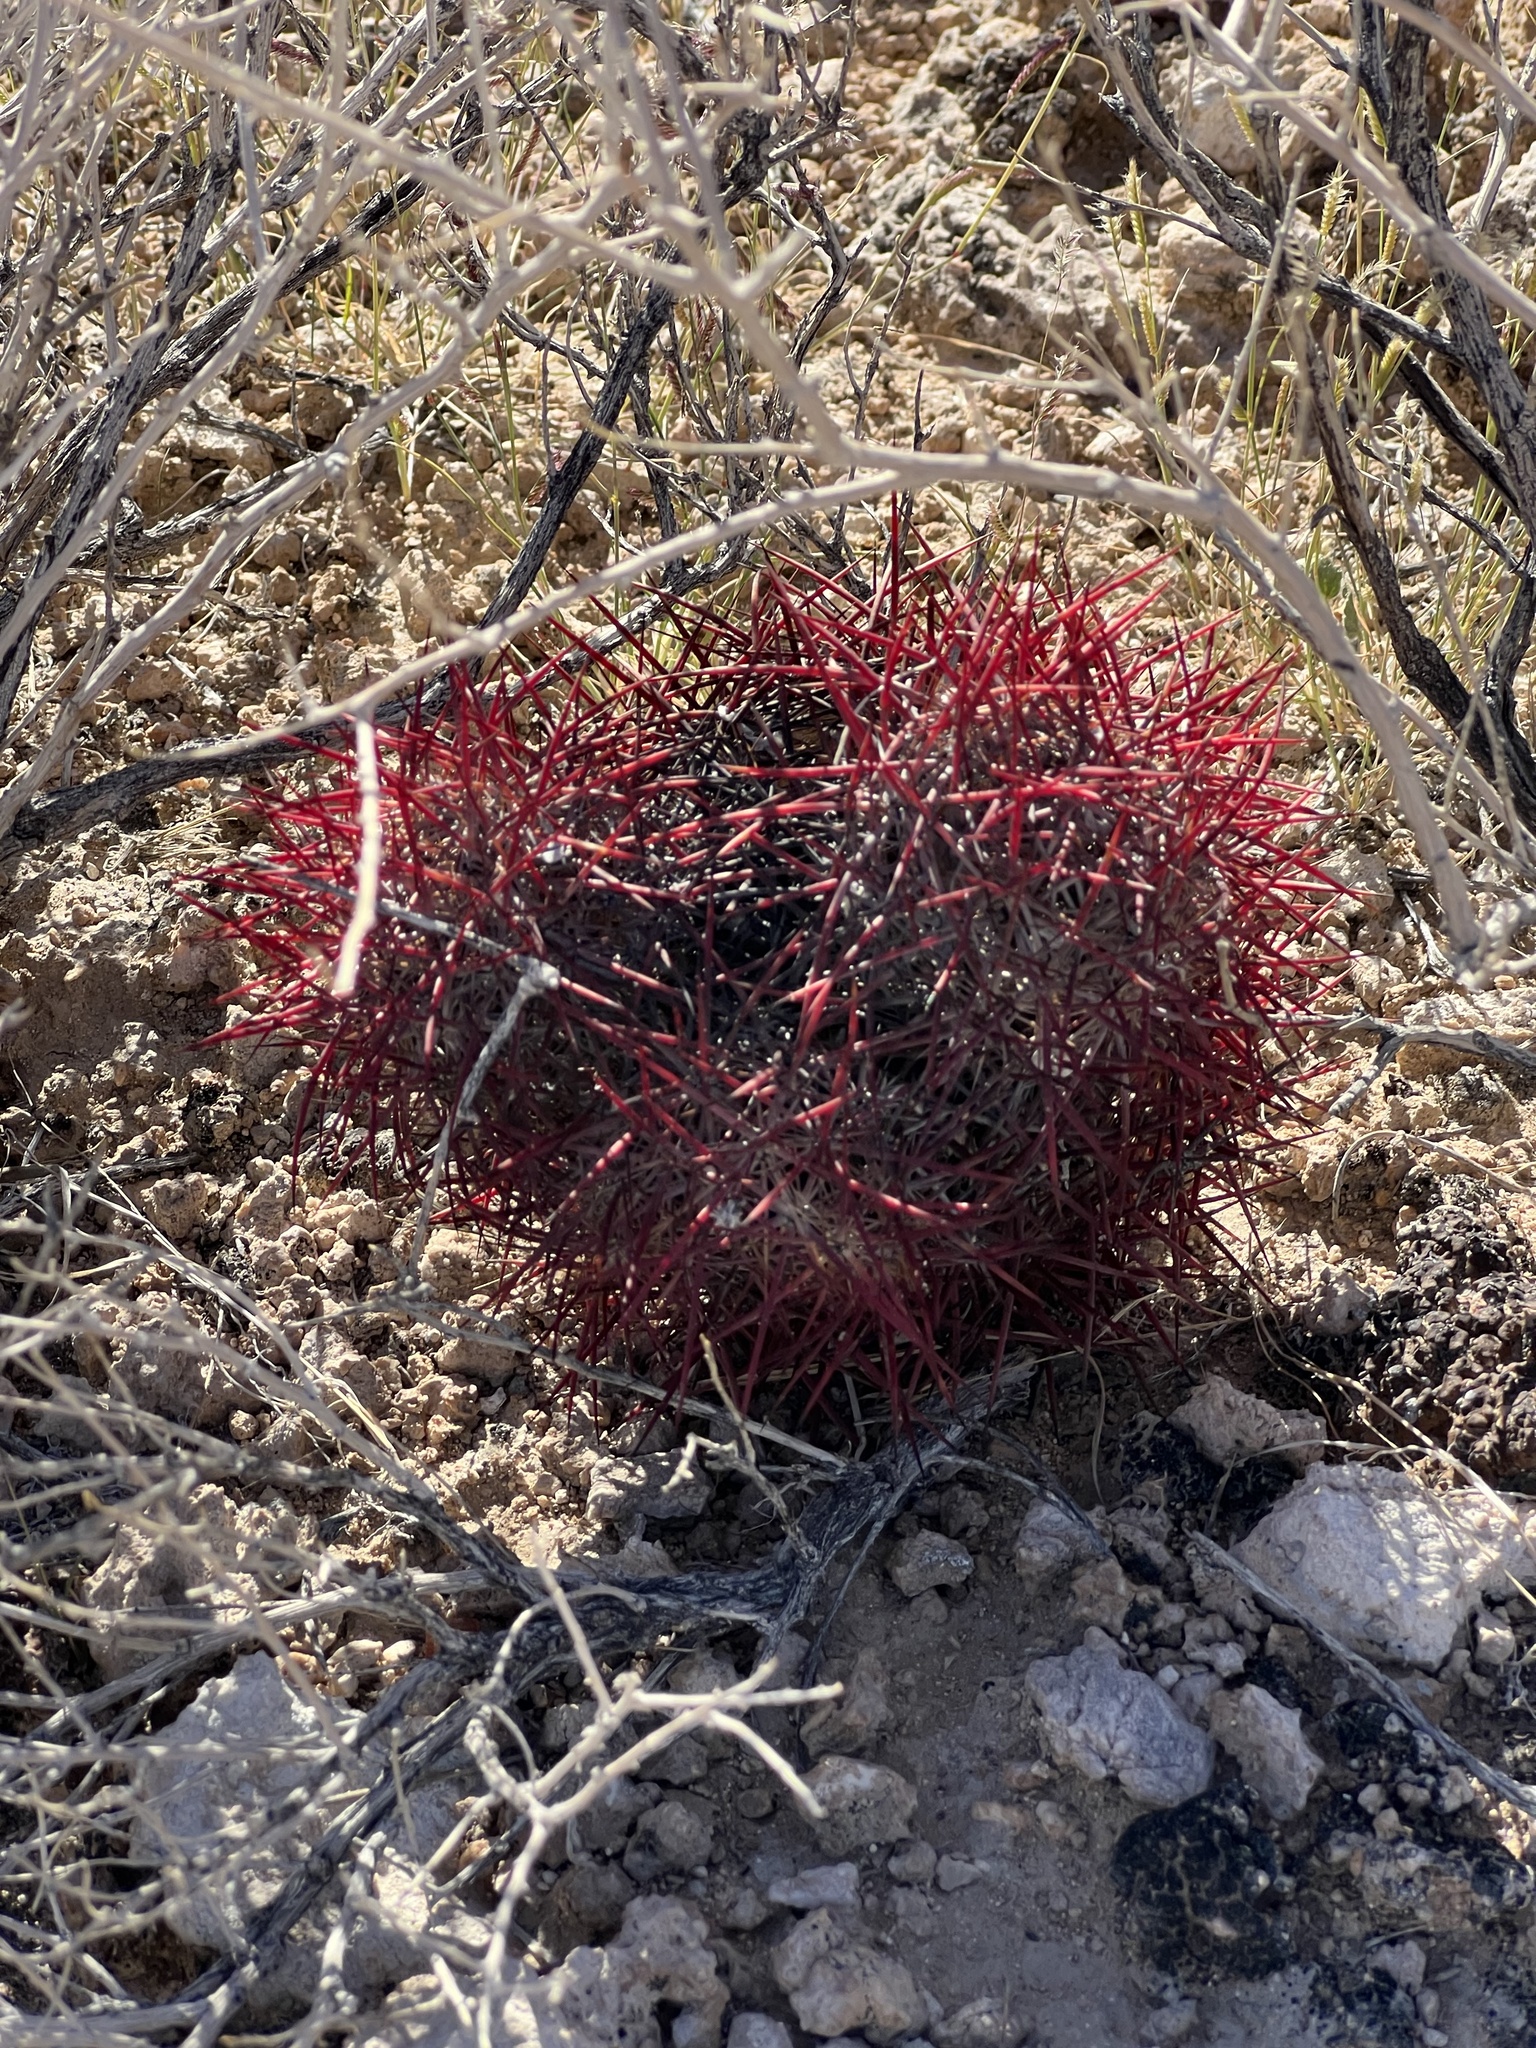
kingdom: Plantae
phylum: Tracheophyta
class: Magnoliopsida
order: Caryophyllales
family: Cactaceae
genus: Sclerocactus
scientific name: Sclerocactus johnsonii
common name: Eight-spine fishhook cactus
